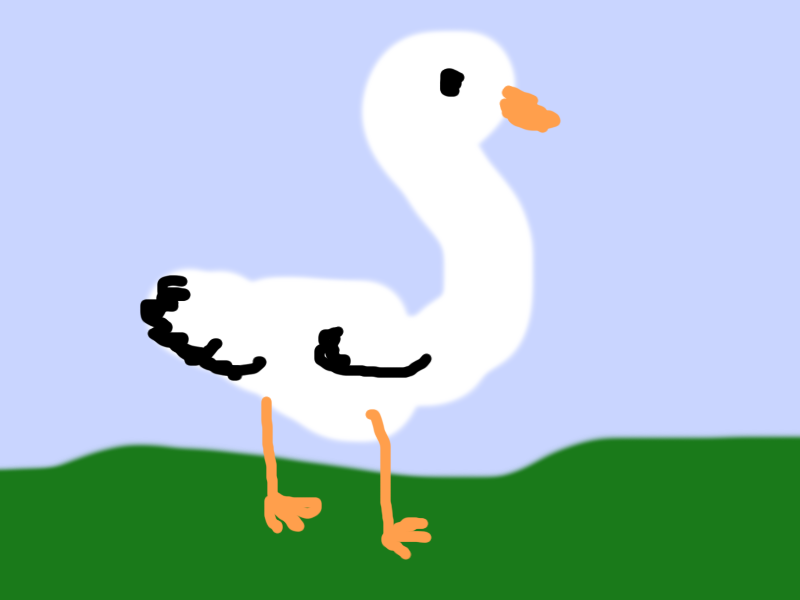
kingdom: Animalia
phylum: Chordata
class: Aves
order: Anseriformes
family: Anatidae
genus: Anser
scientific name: Anser caerulescens
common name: Snow goose
